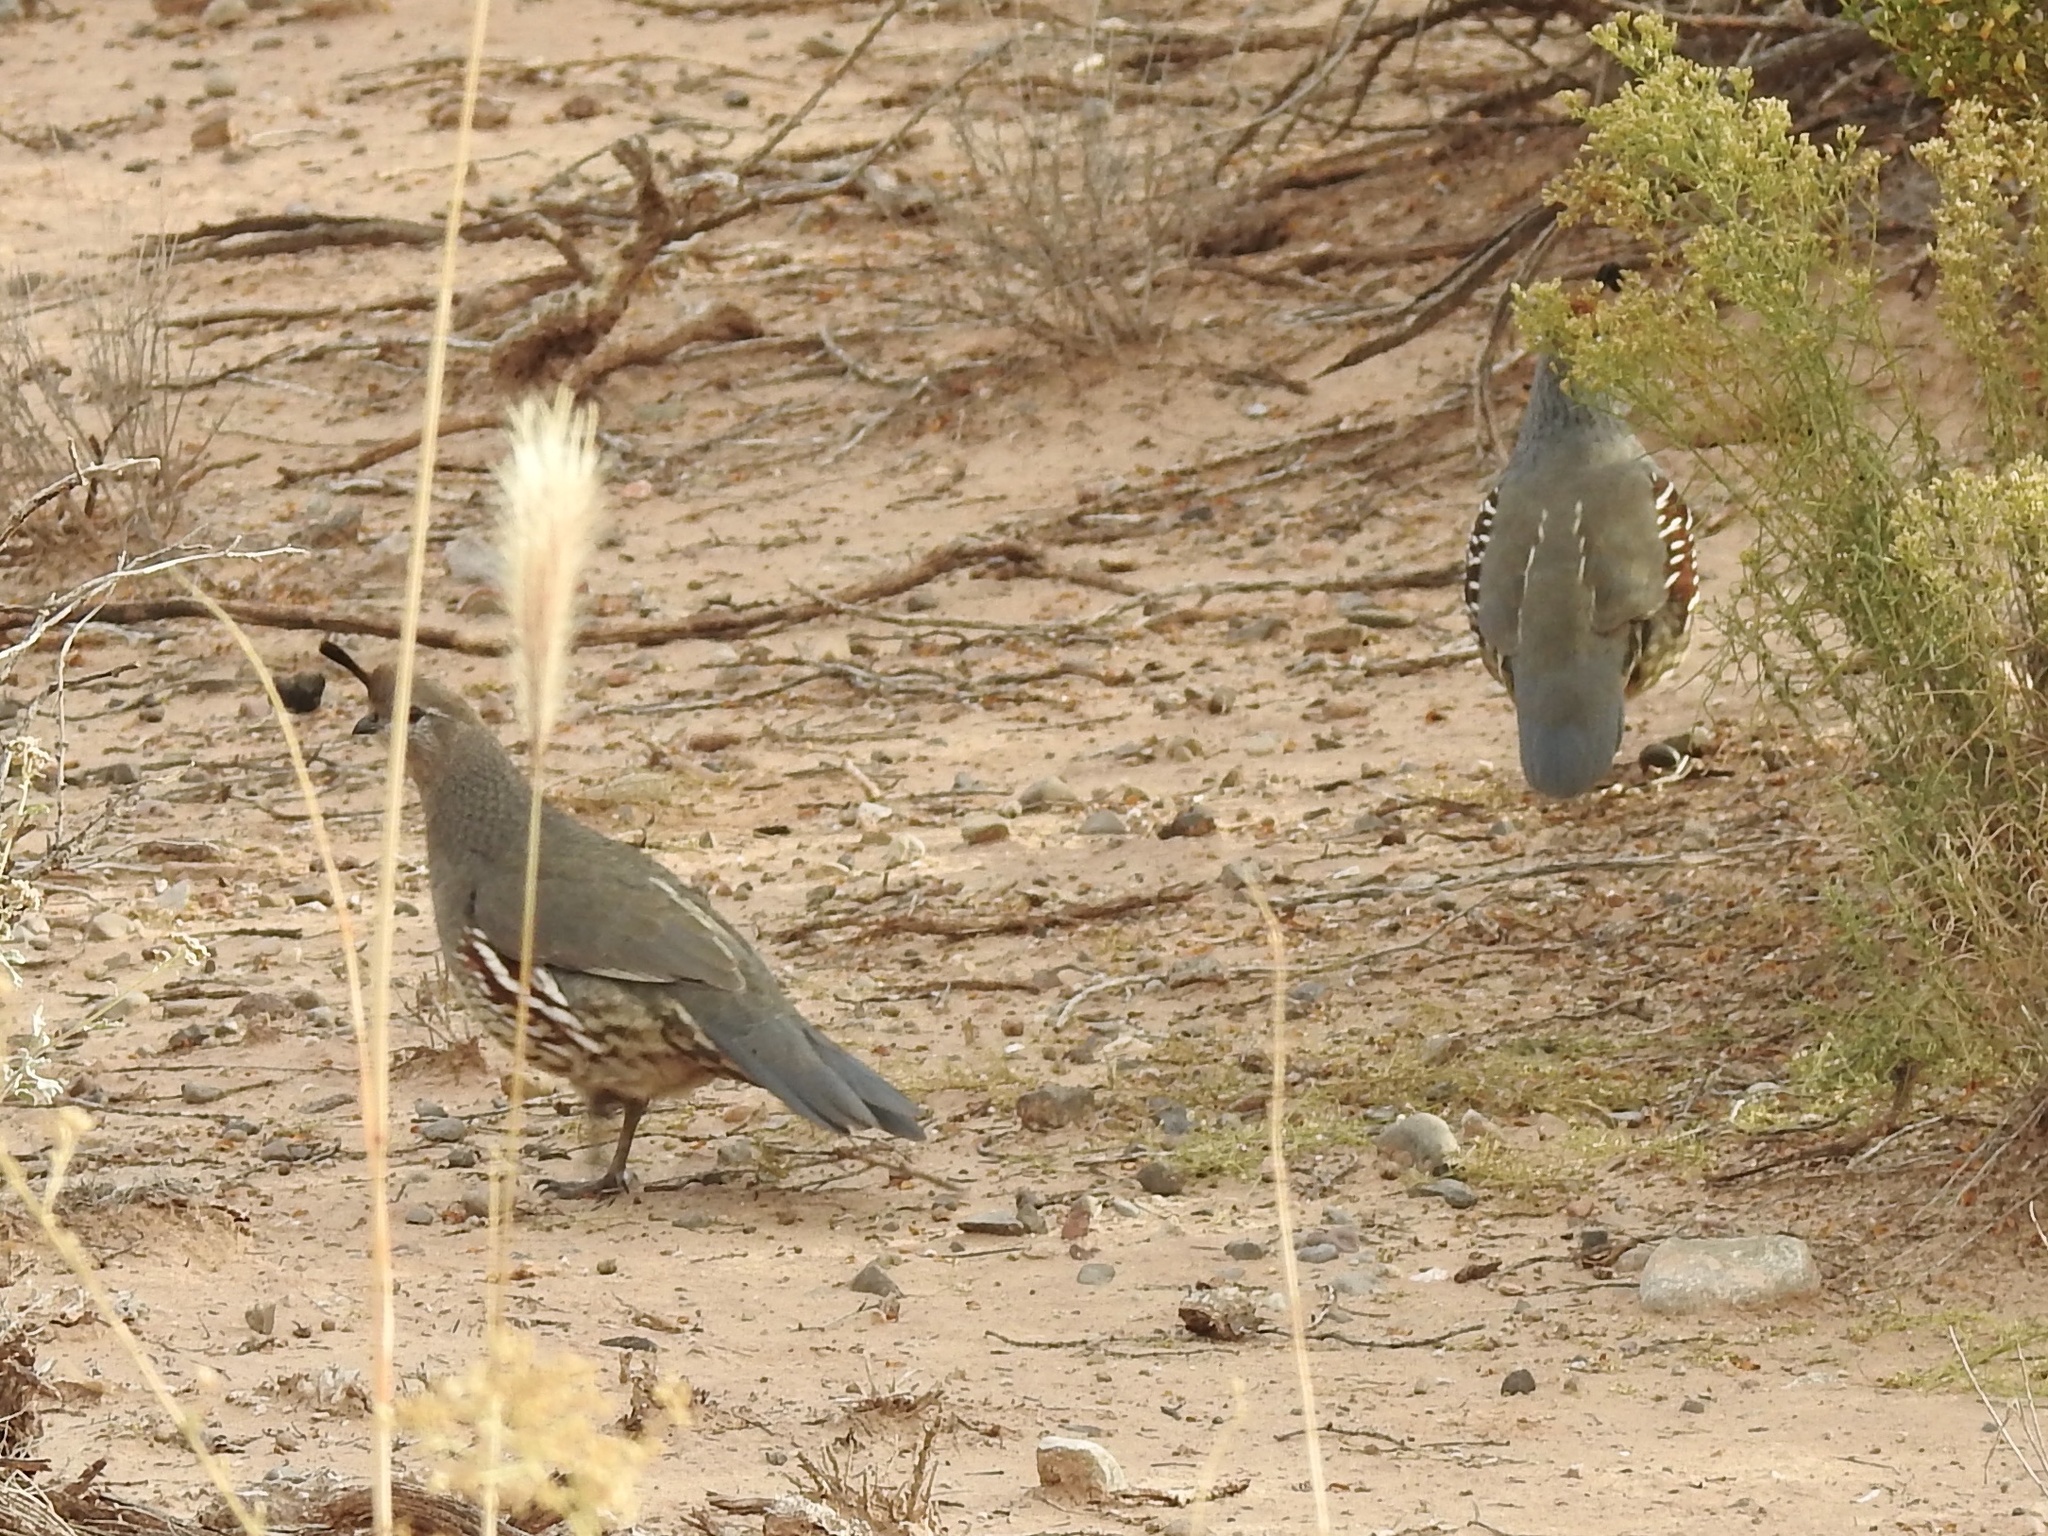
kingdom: Animalia
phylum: Chordata
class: Aves
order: Galliformes
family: Odontophoridae
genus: Callipepla
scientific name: Callipepla gambelii
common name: Gambel's quail
